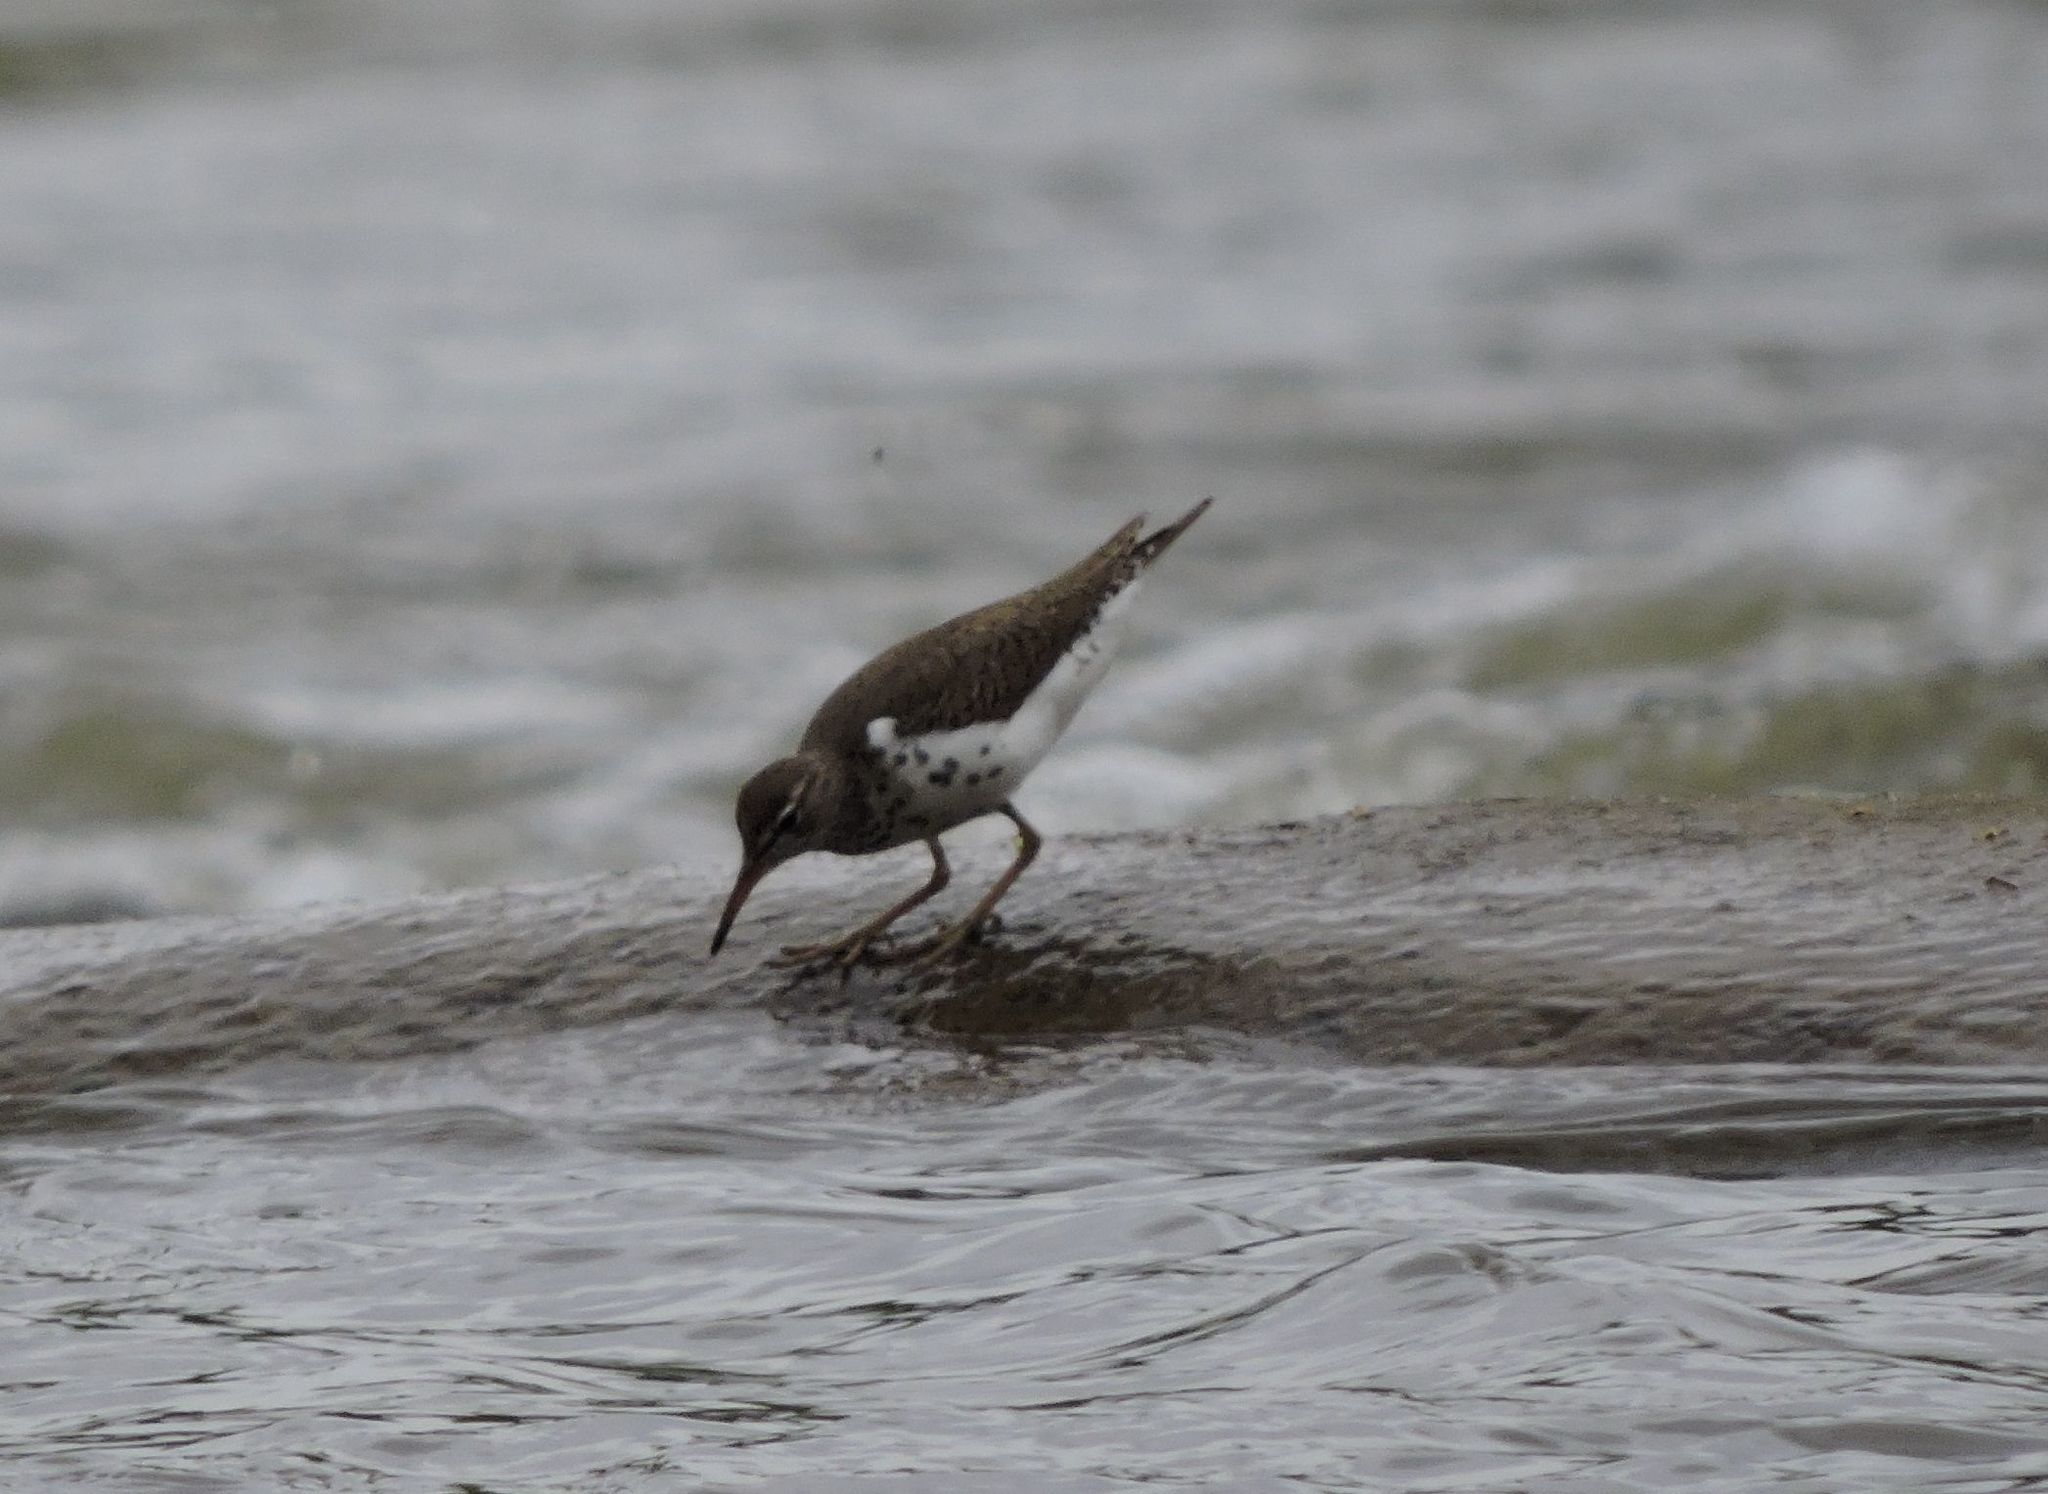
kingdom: Animalia
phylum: Chordata
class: Aves
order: Charadriiformes
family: Scolopacidae
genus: Actitis
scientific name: Actitis macularius
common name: Spotted sandpiper
